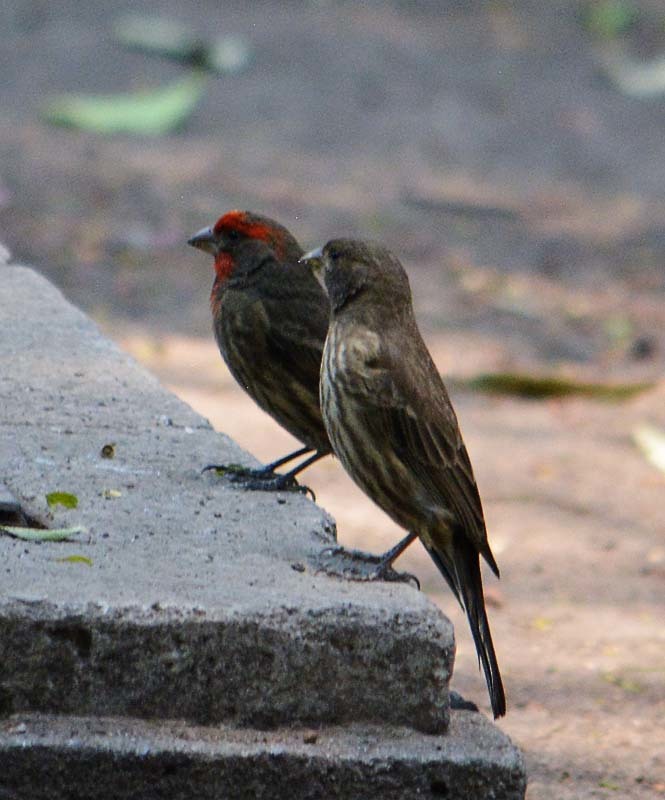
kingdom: Animalia
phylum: Chordata
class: Aves
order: Passeriformes
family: Fringillidae
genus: Haemorhous
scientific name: Haemorhous mexicanus
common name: House finch
